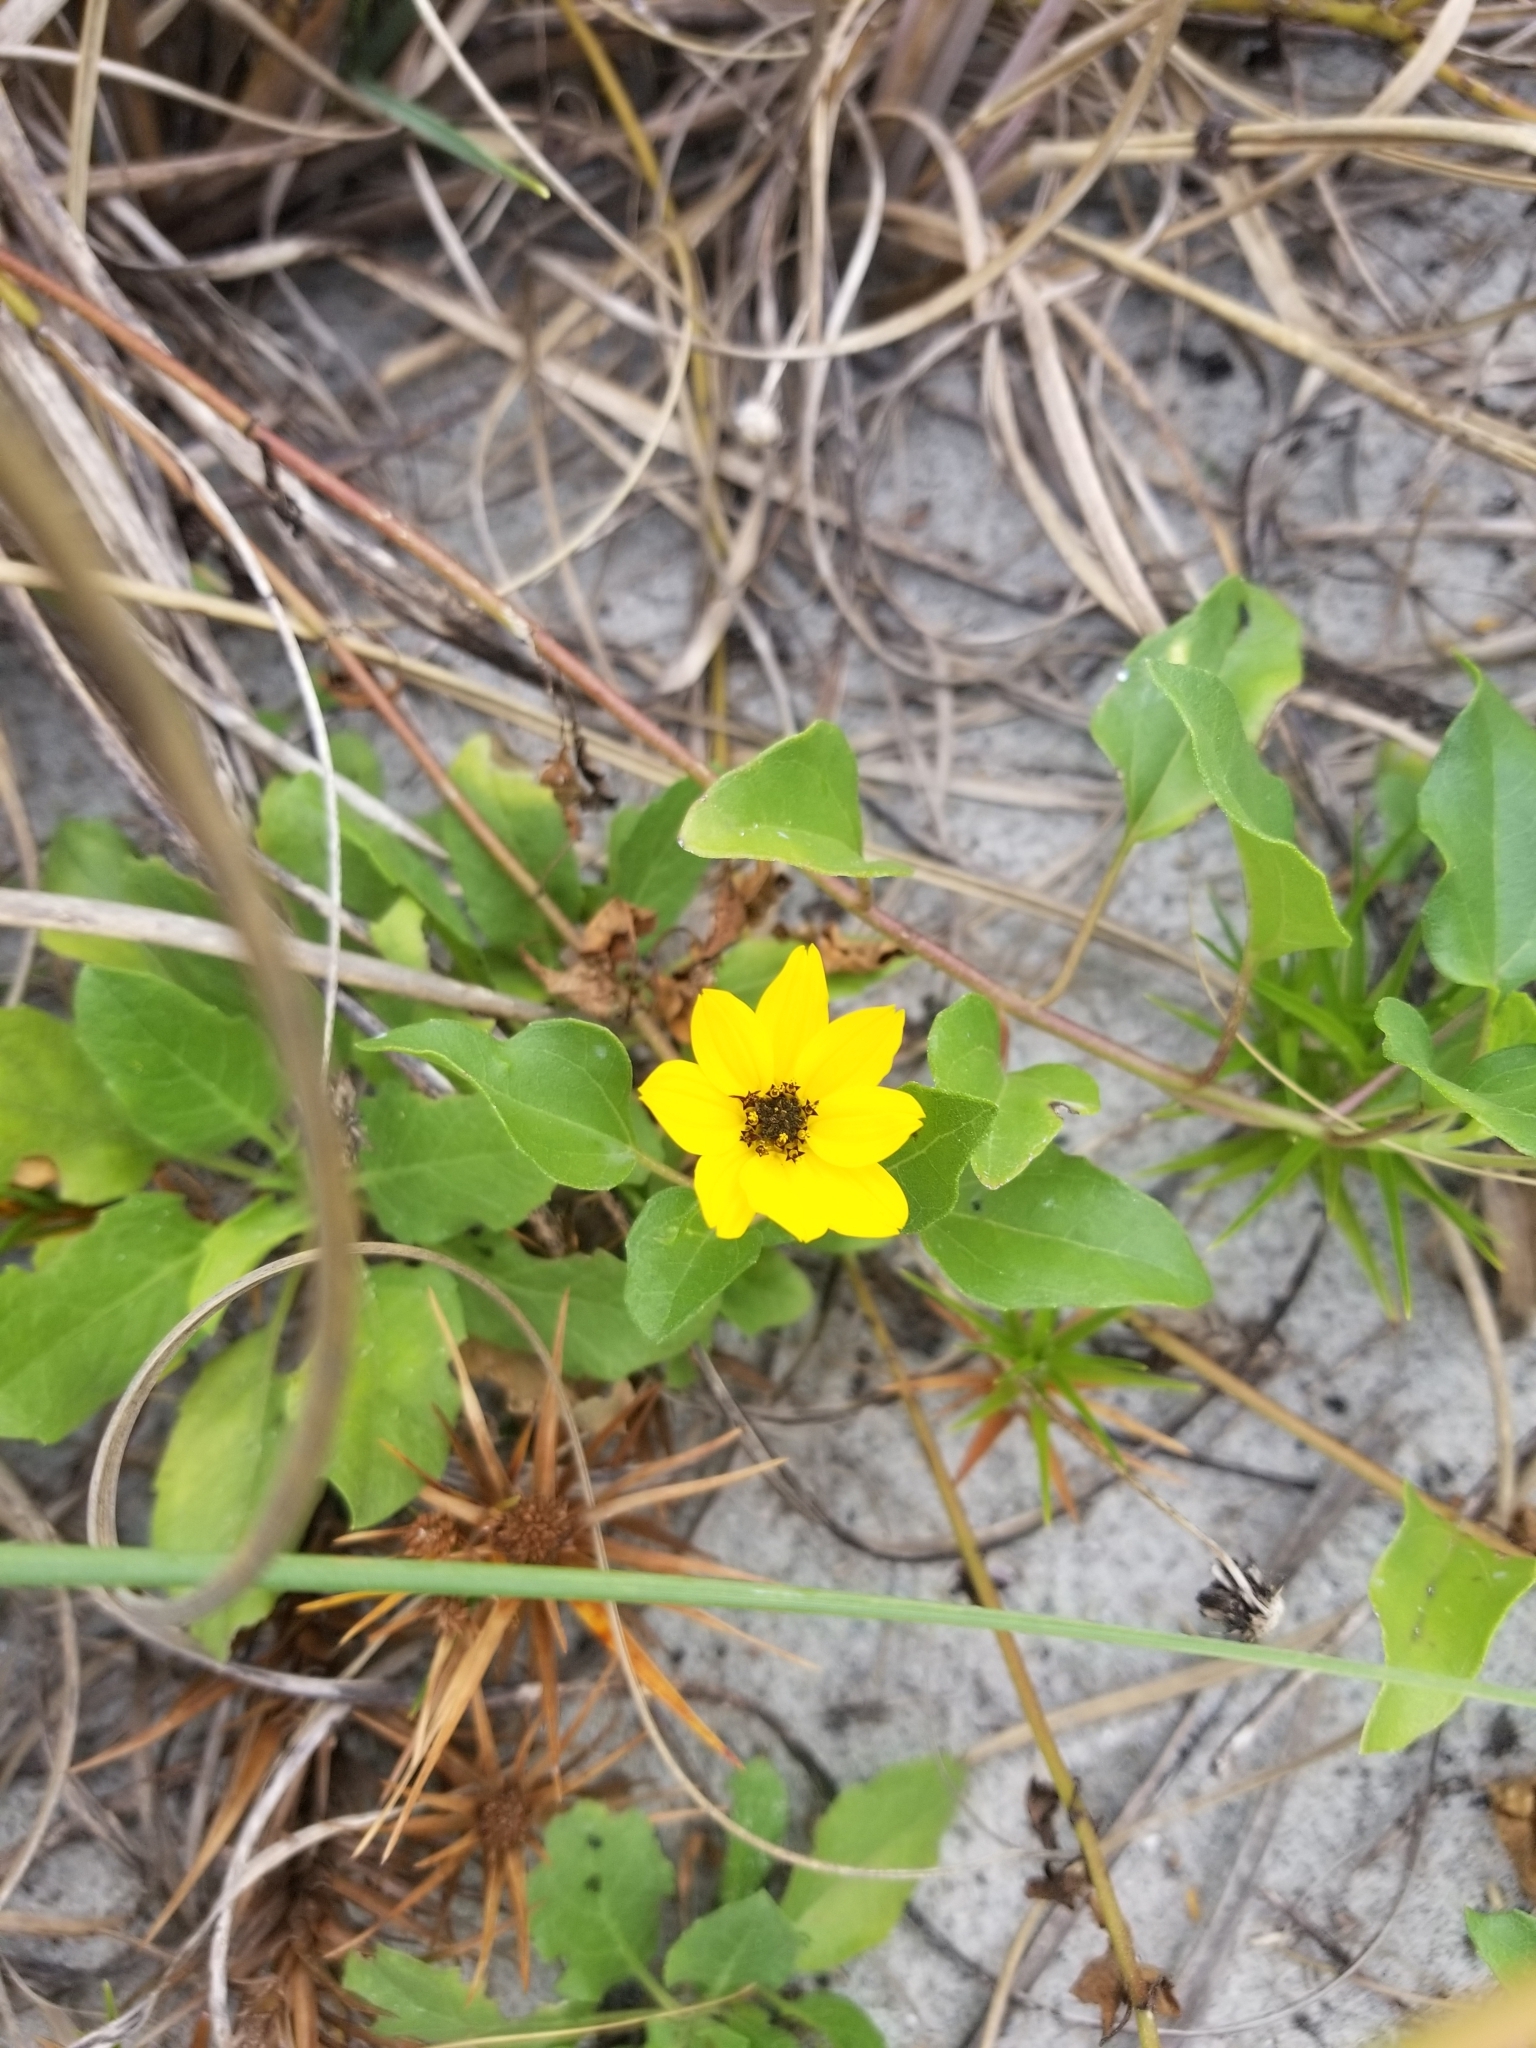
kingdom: Plantae
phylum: Tracheophyta
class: Magnoliopsida
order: Asterales
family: Asteraceae
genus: Helianthus
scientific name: Helianthus debilis
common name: Weak sunflower
